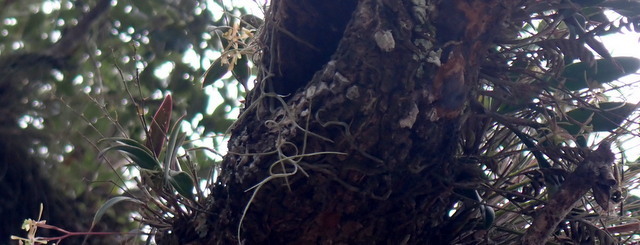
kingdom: Plantae
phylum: Tracheophyta
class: Liliopsida
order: Asparagales
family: Orchidaceae
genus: Epidendrum
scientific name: Epidendrum conopseum
